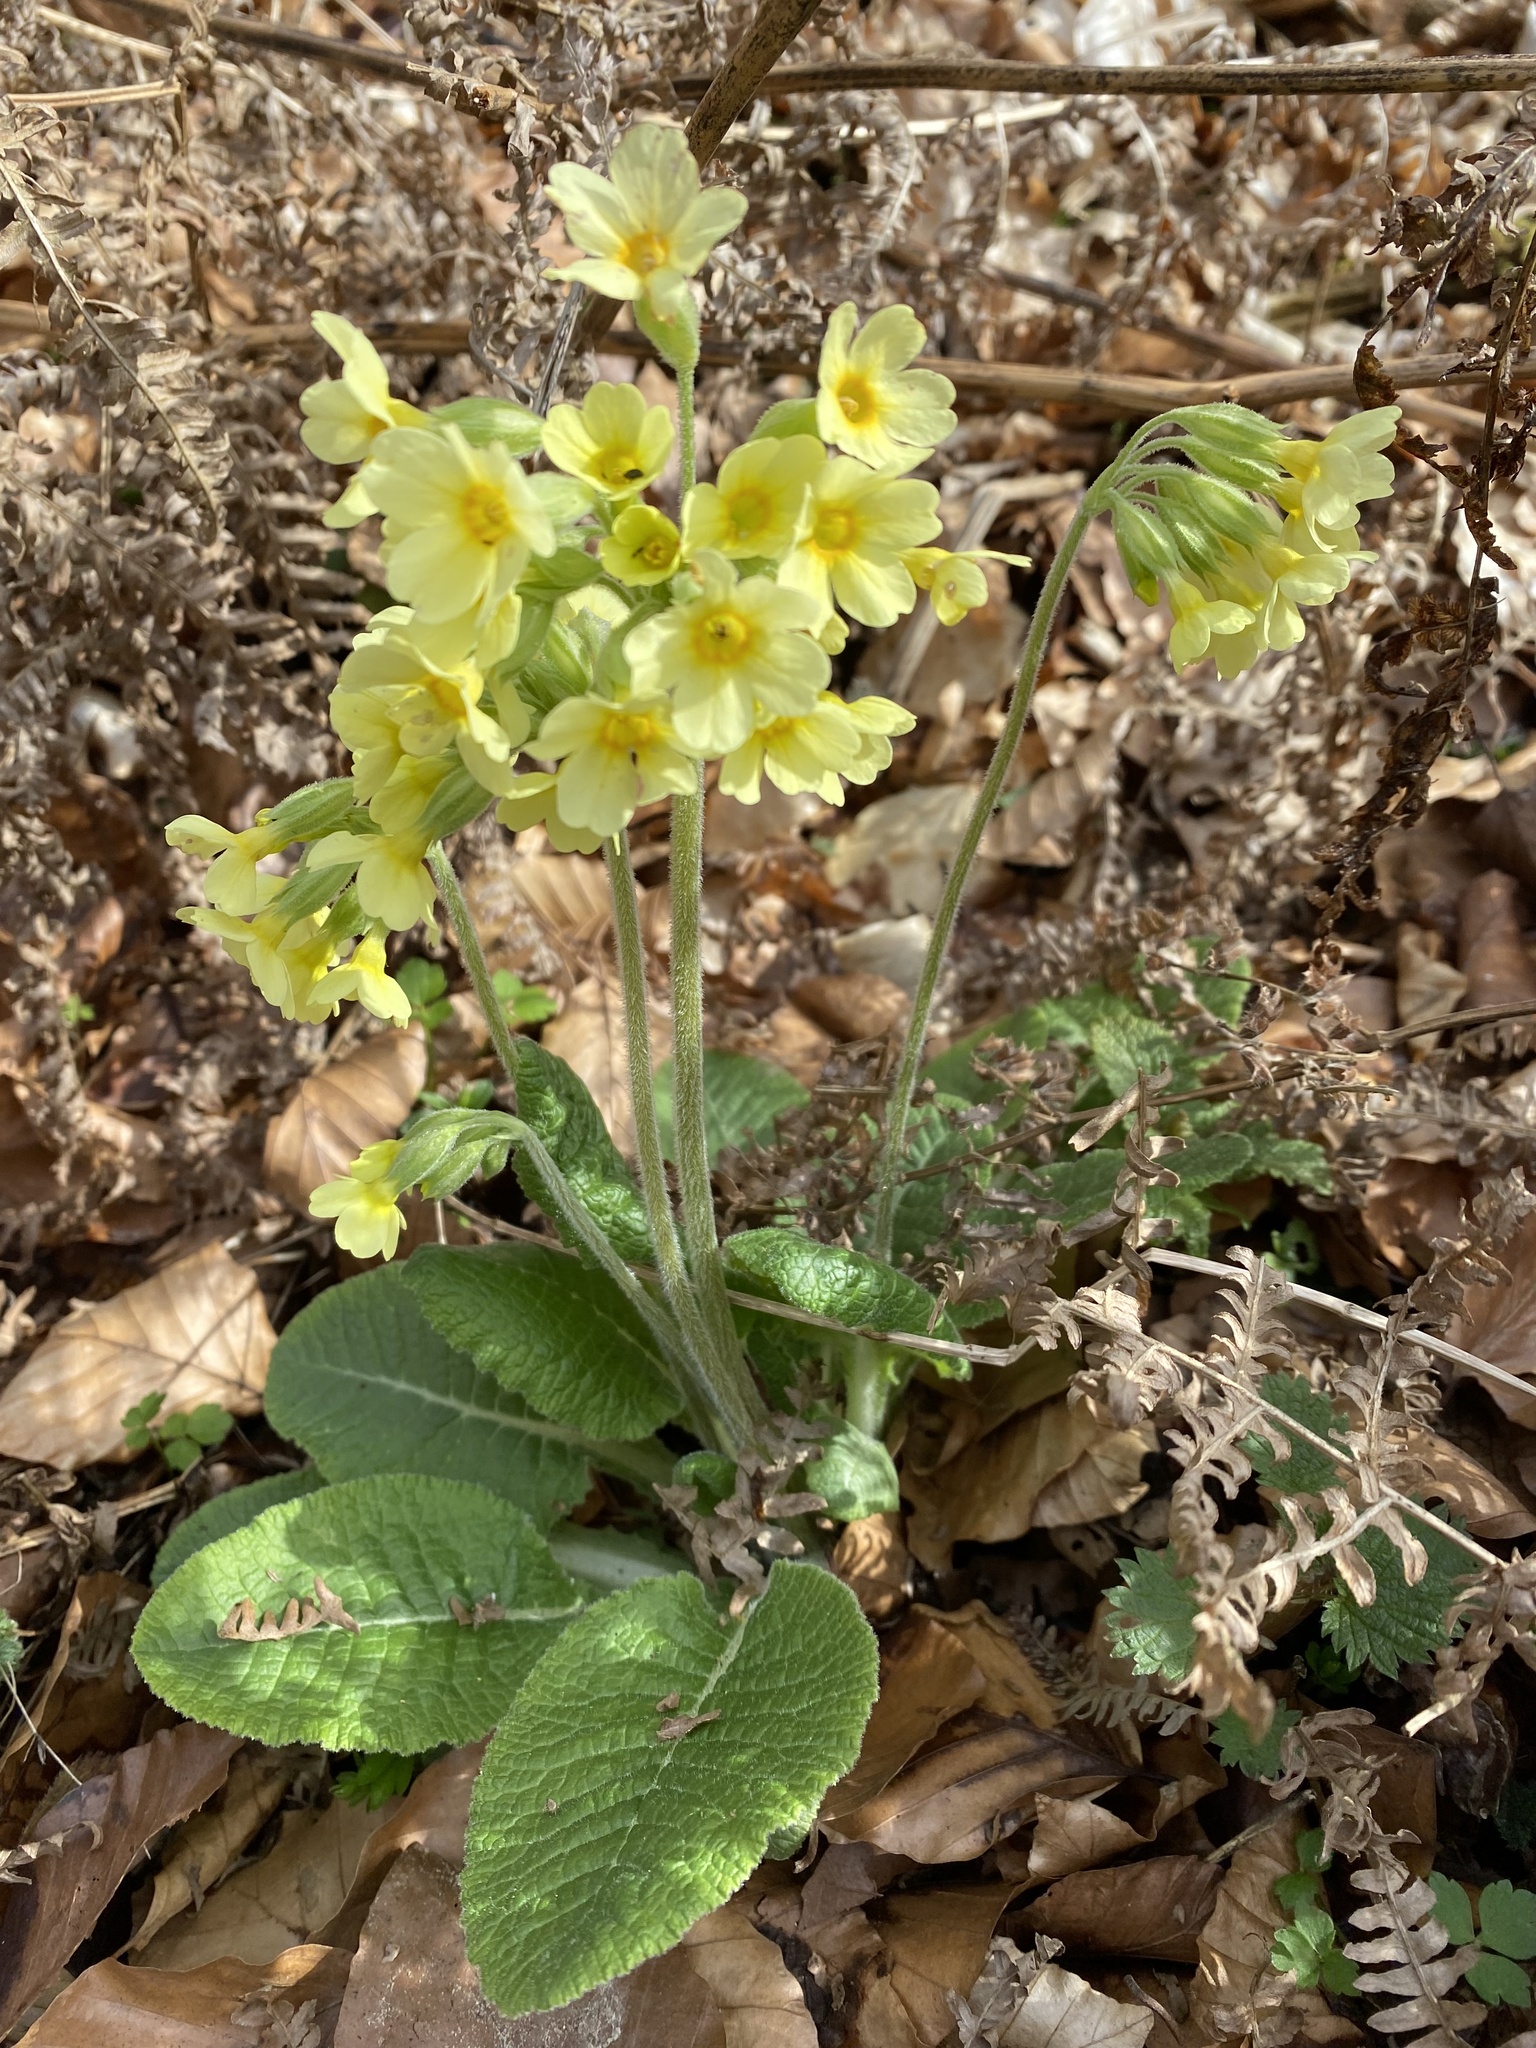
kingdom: Plantae
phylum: Tracheophyta
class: Magnoliopsida
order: Ericales
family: Primulaceae
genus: Primula
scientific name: Primula elatior
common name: Oxlip
